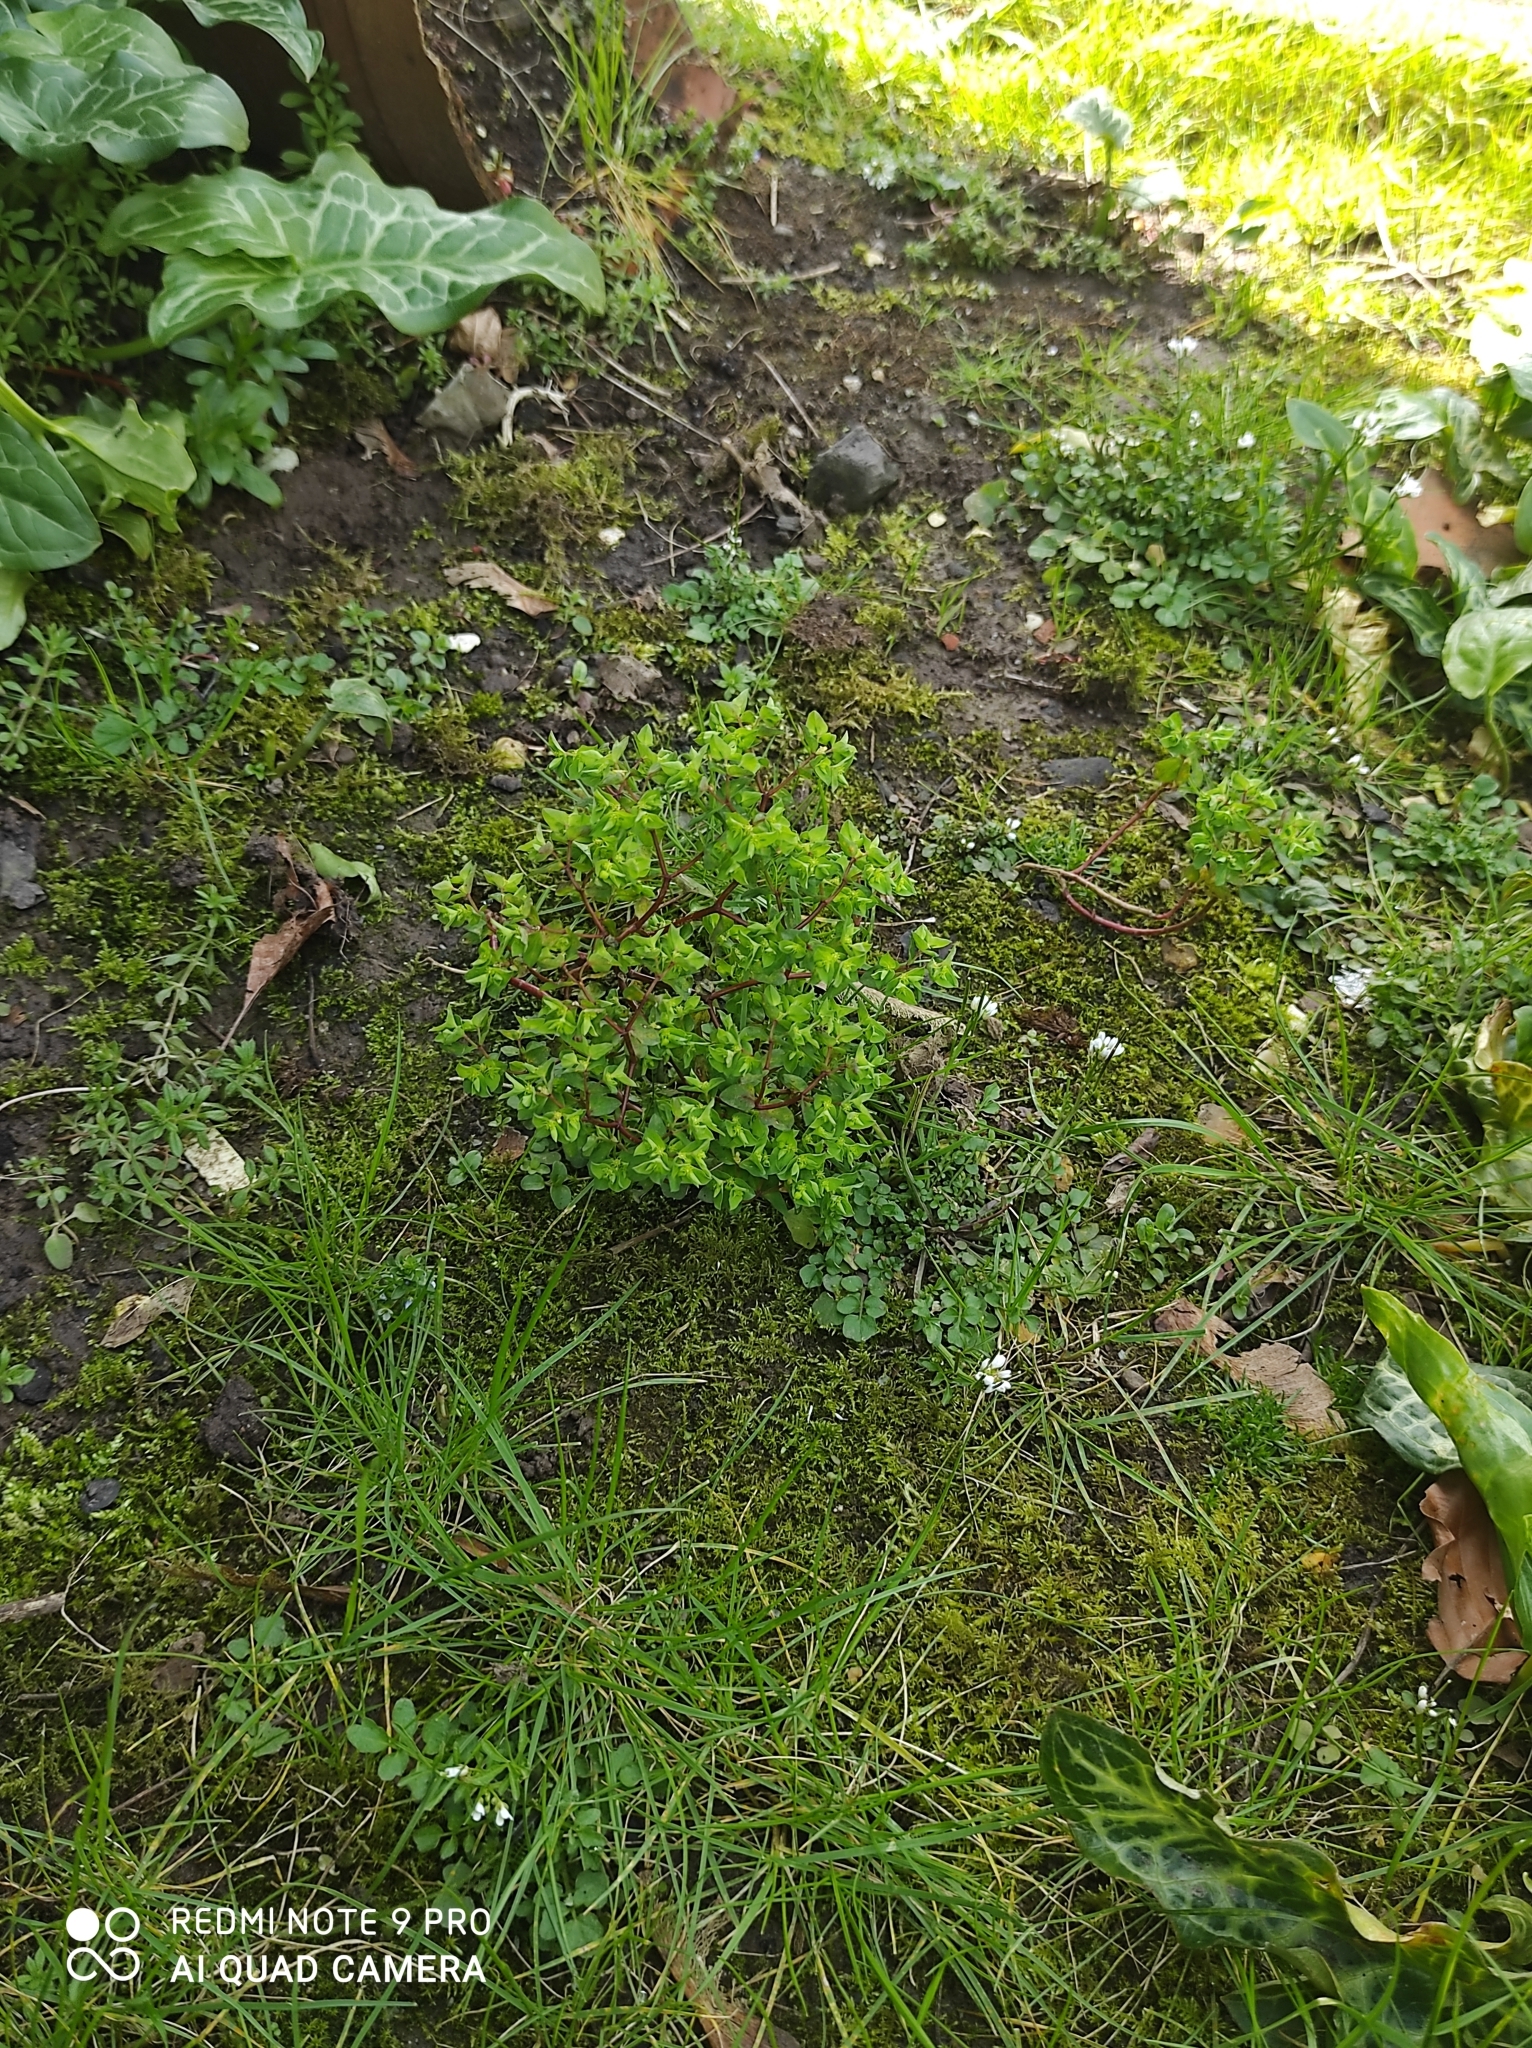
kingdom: Plantae
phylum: Tracheophyta
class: Magnoliopsida
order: Malpighiales
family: Euphorbiaceae
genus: Euphorbia
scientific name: Euphorbia peplus
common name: Petty spurge
